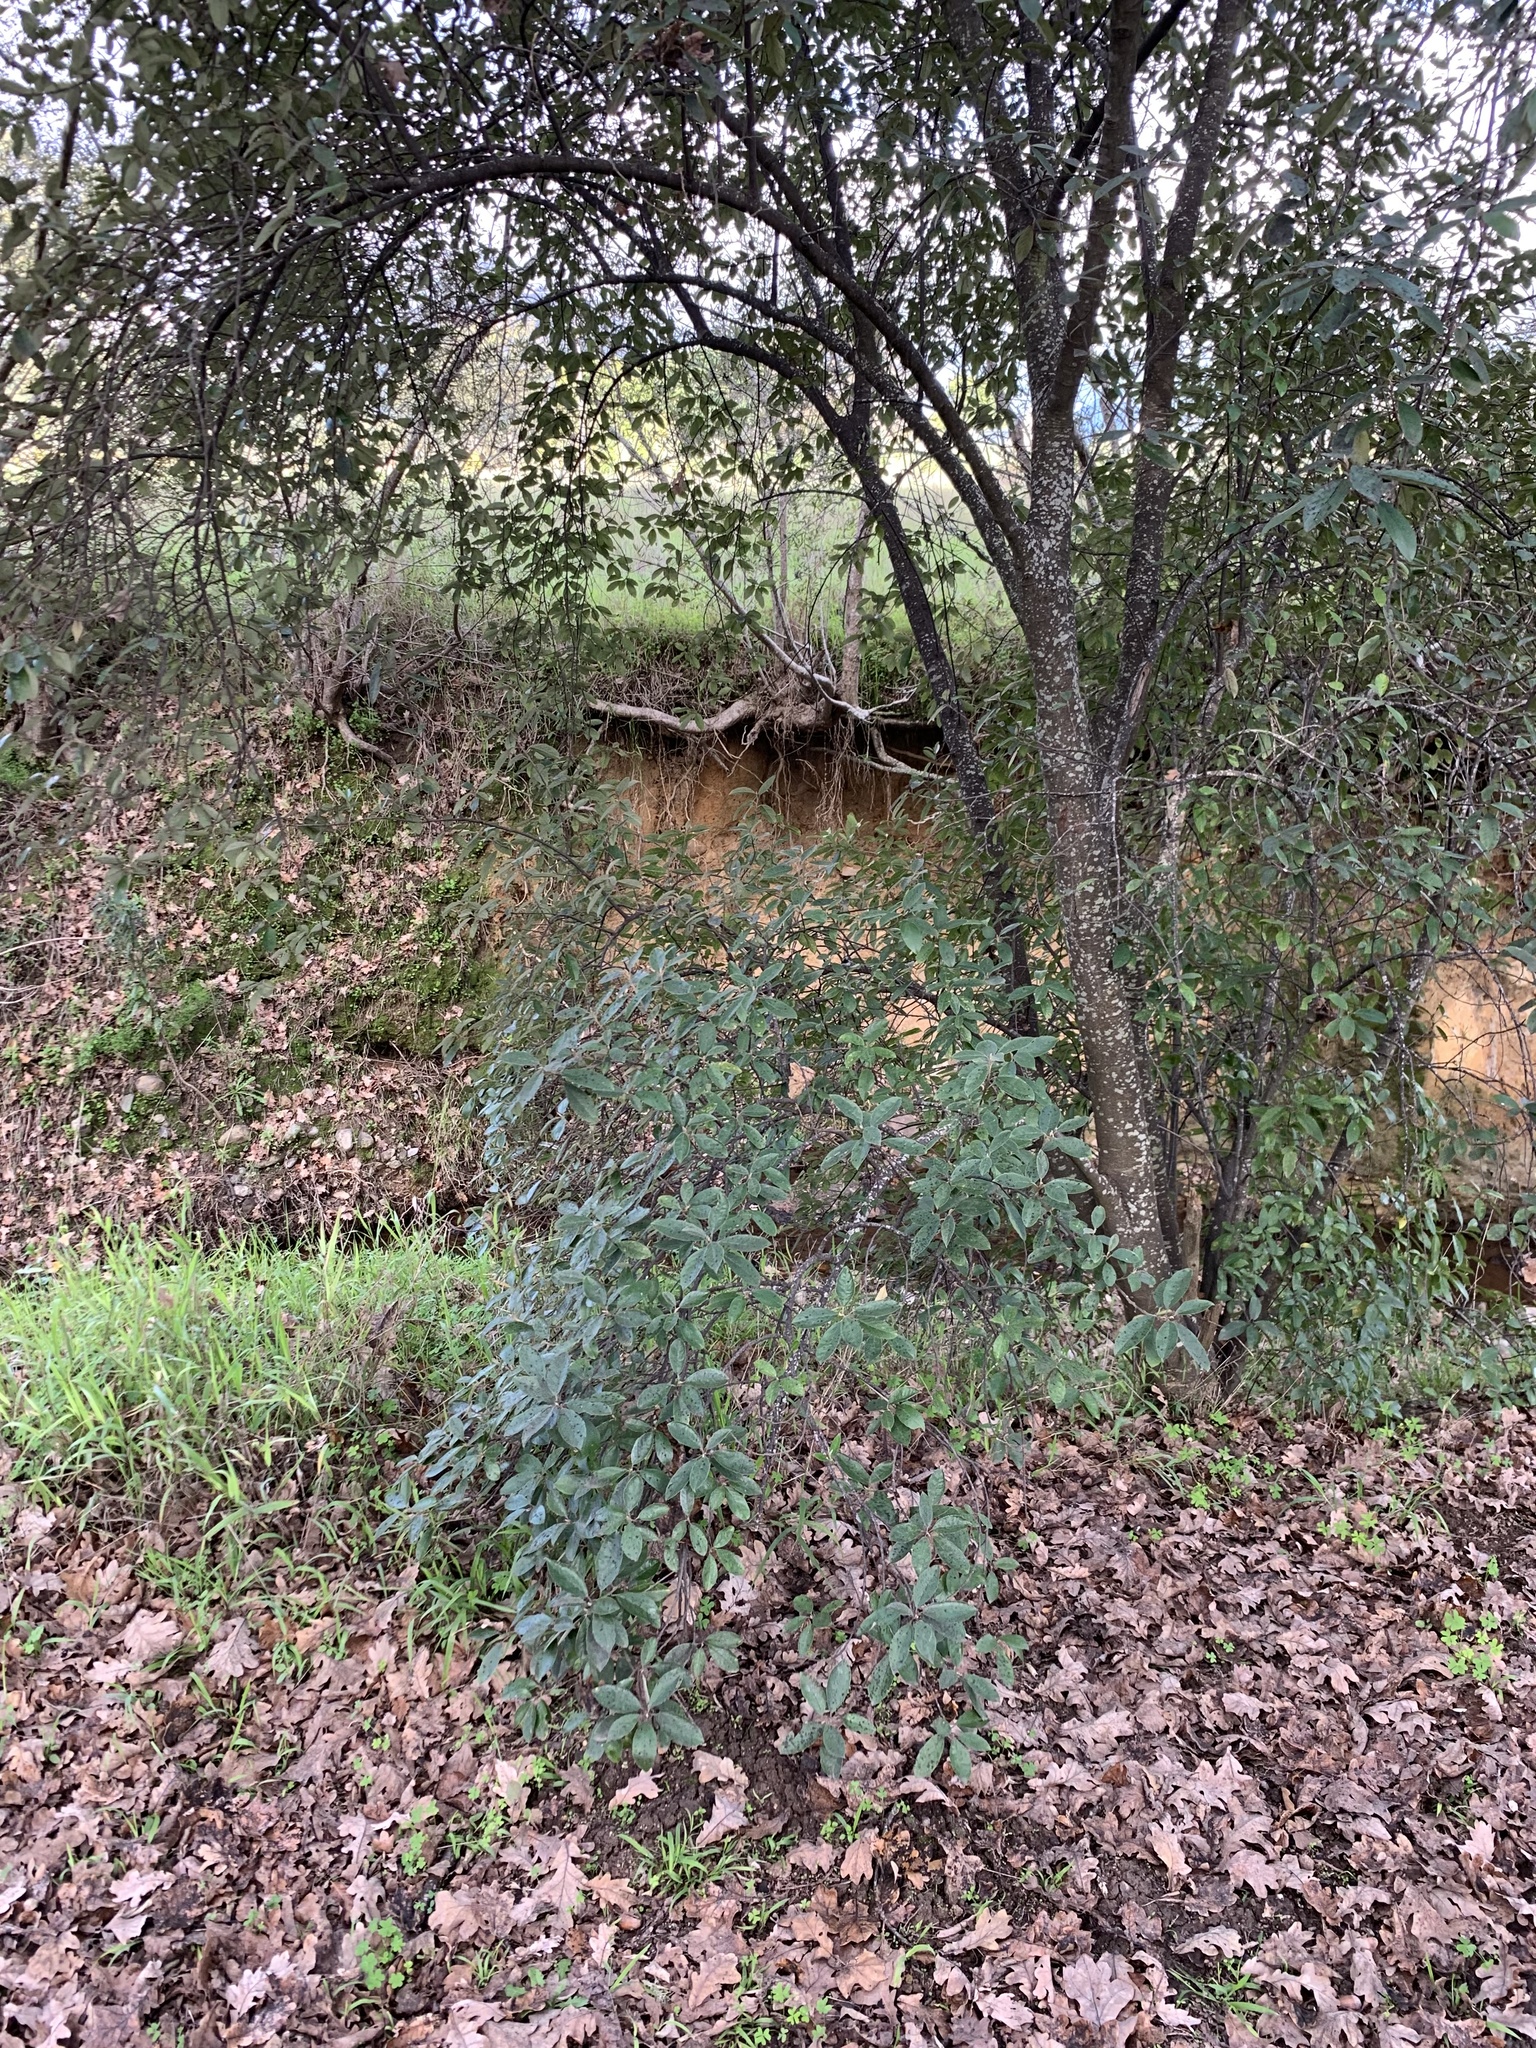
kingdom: Plantae
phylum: Tracheophyta
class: Magnoliopsida
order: Malpighiales
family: Achariaceae
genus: Kiggelaria
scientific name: Kiggelaria africana
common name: Wild peach
